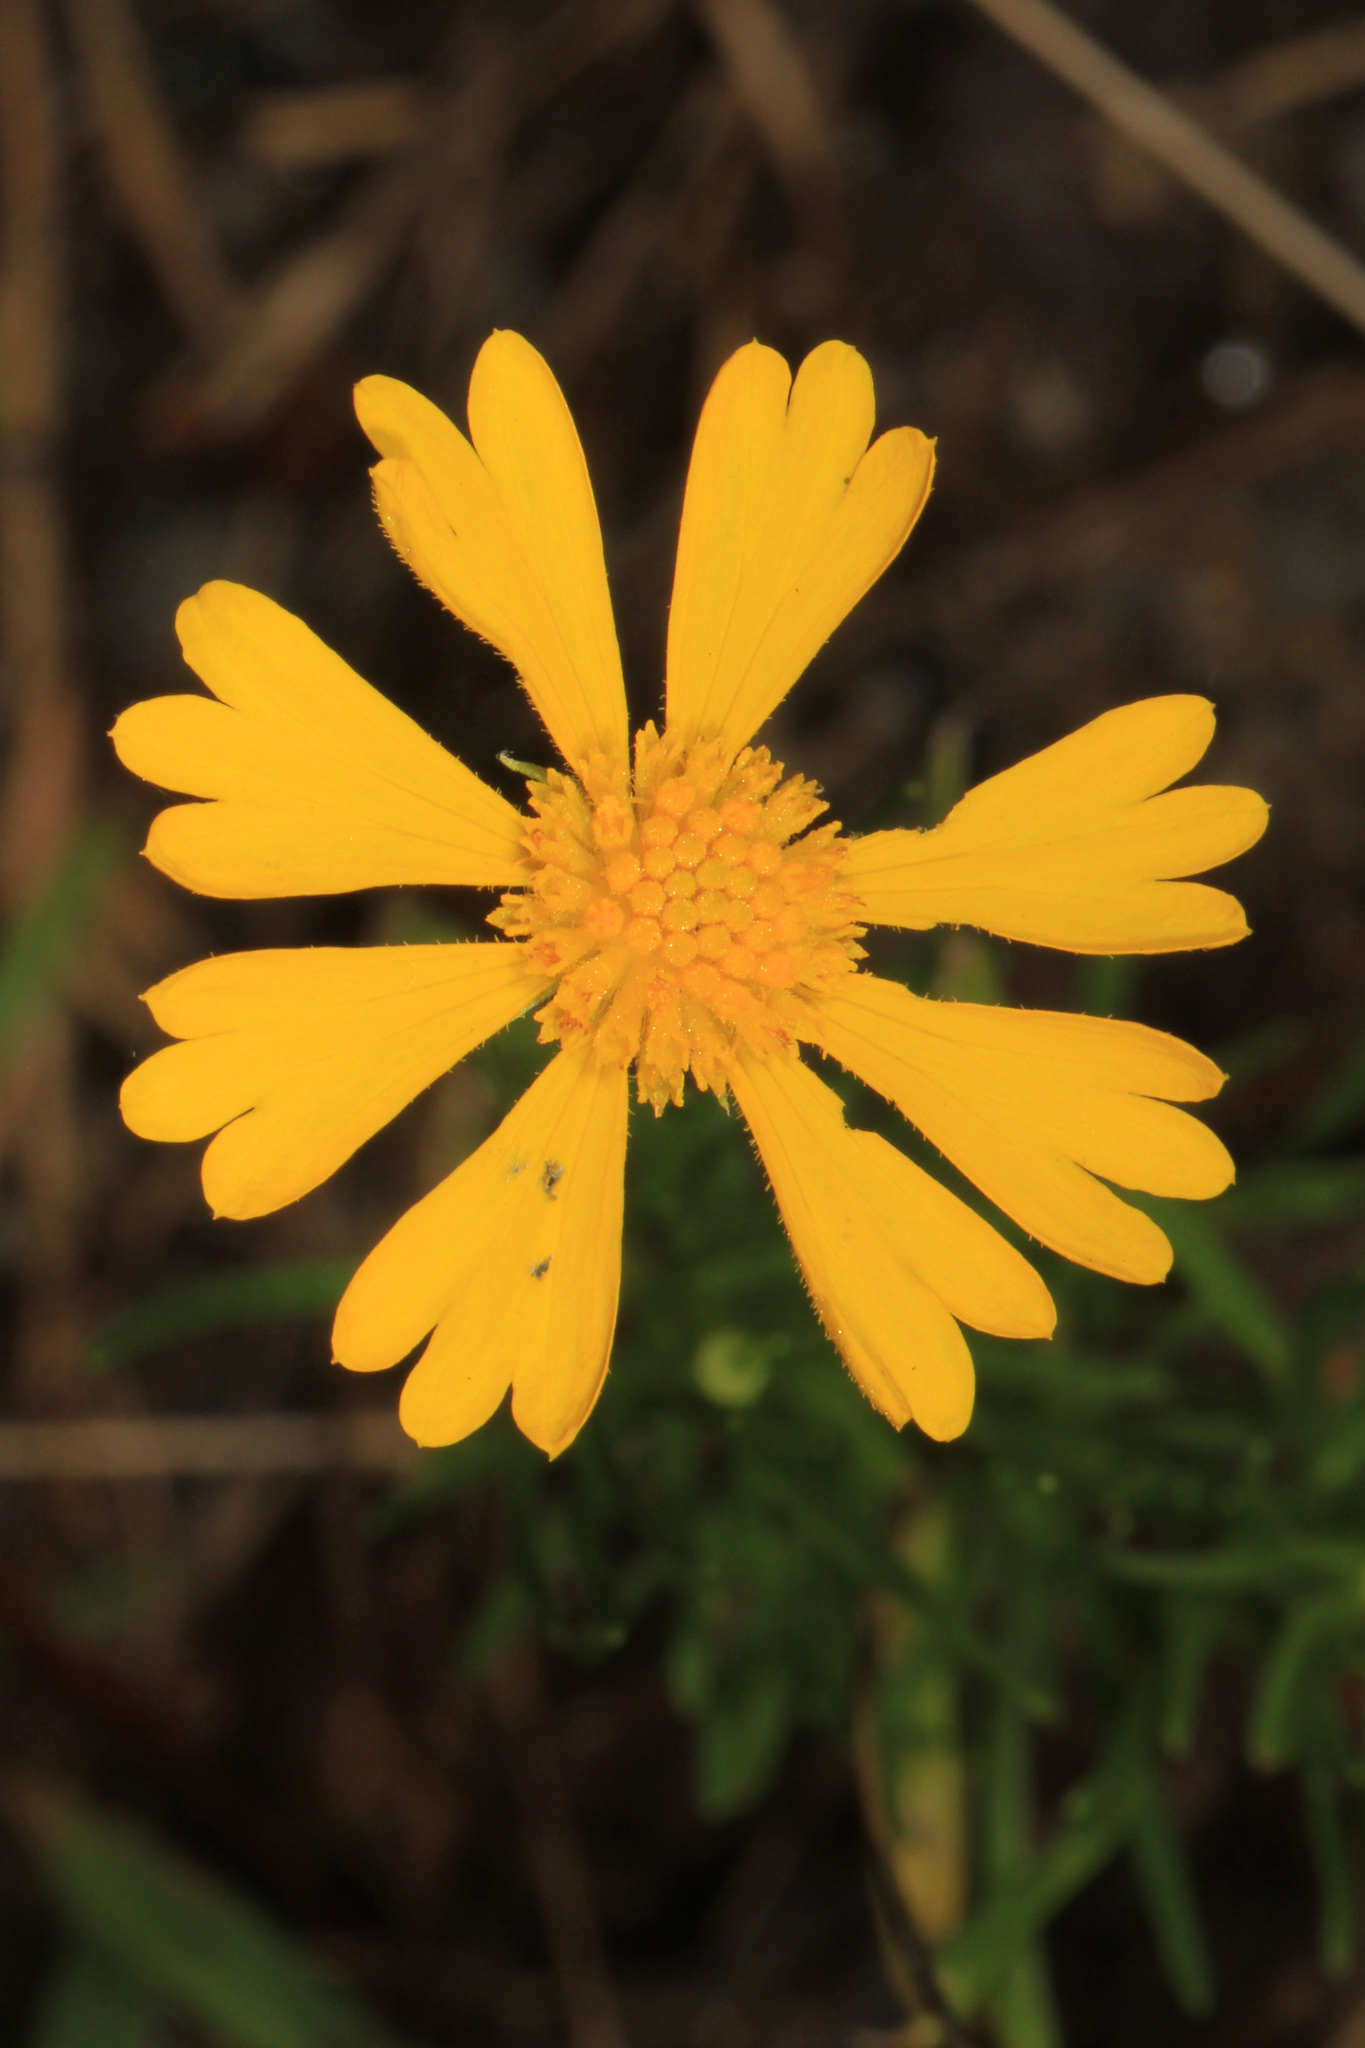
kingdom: Plantae
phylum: Tracheophyta
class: Magnoliopsida
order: Asterales
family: Asteraceae
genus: Helenium
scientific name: Helenium amarum
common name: Bitter sneezeweed
